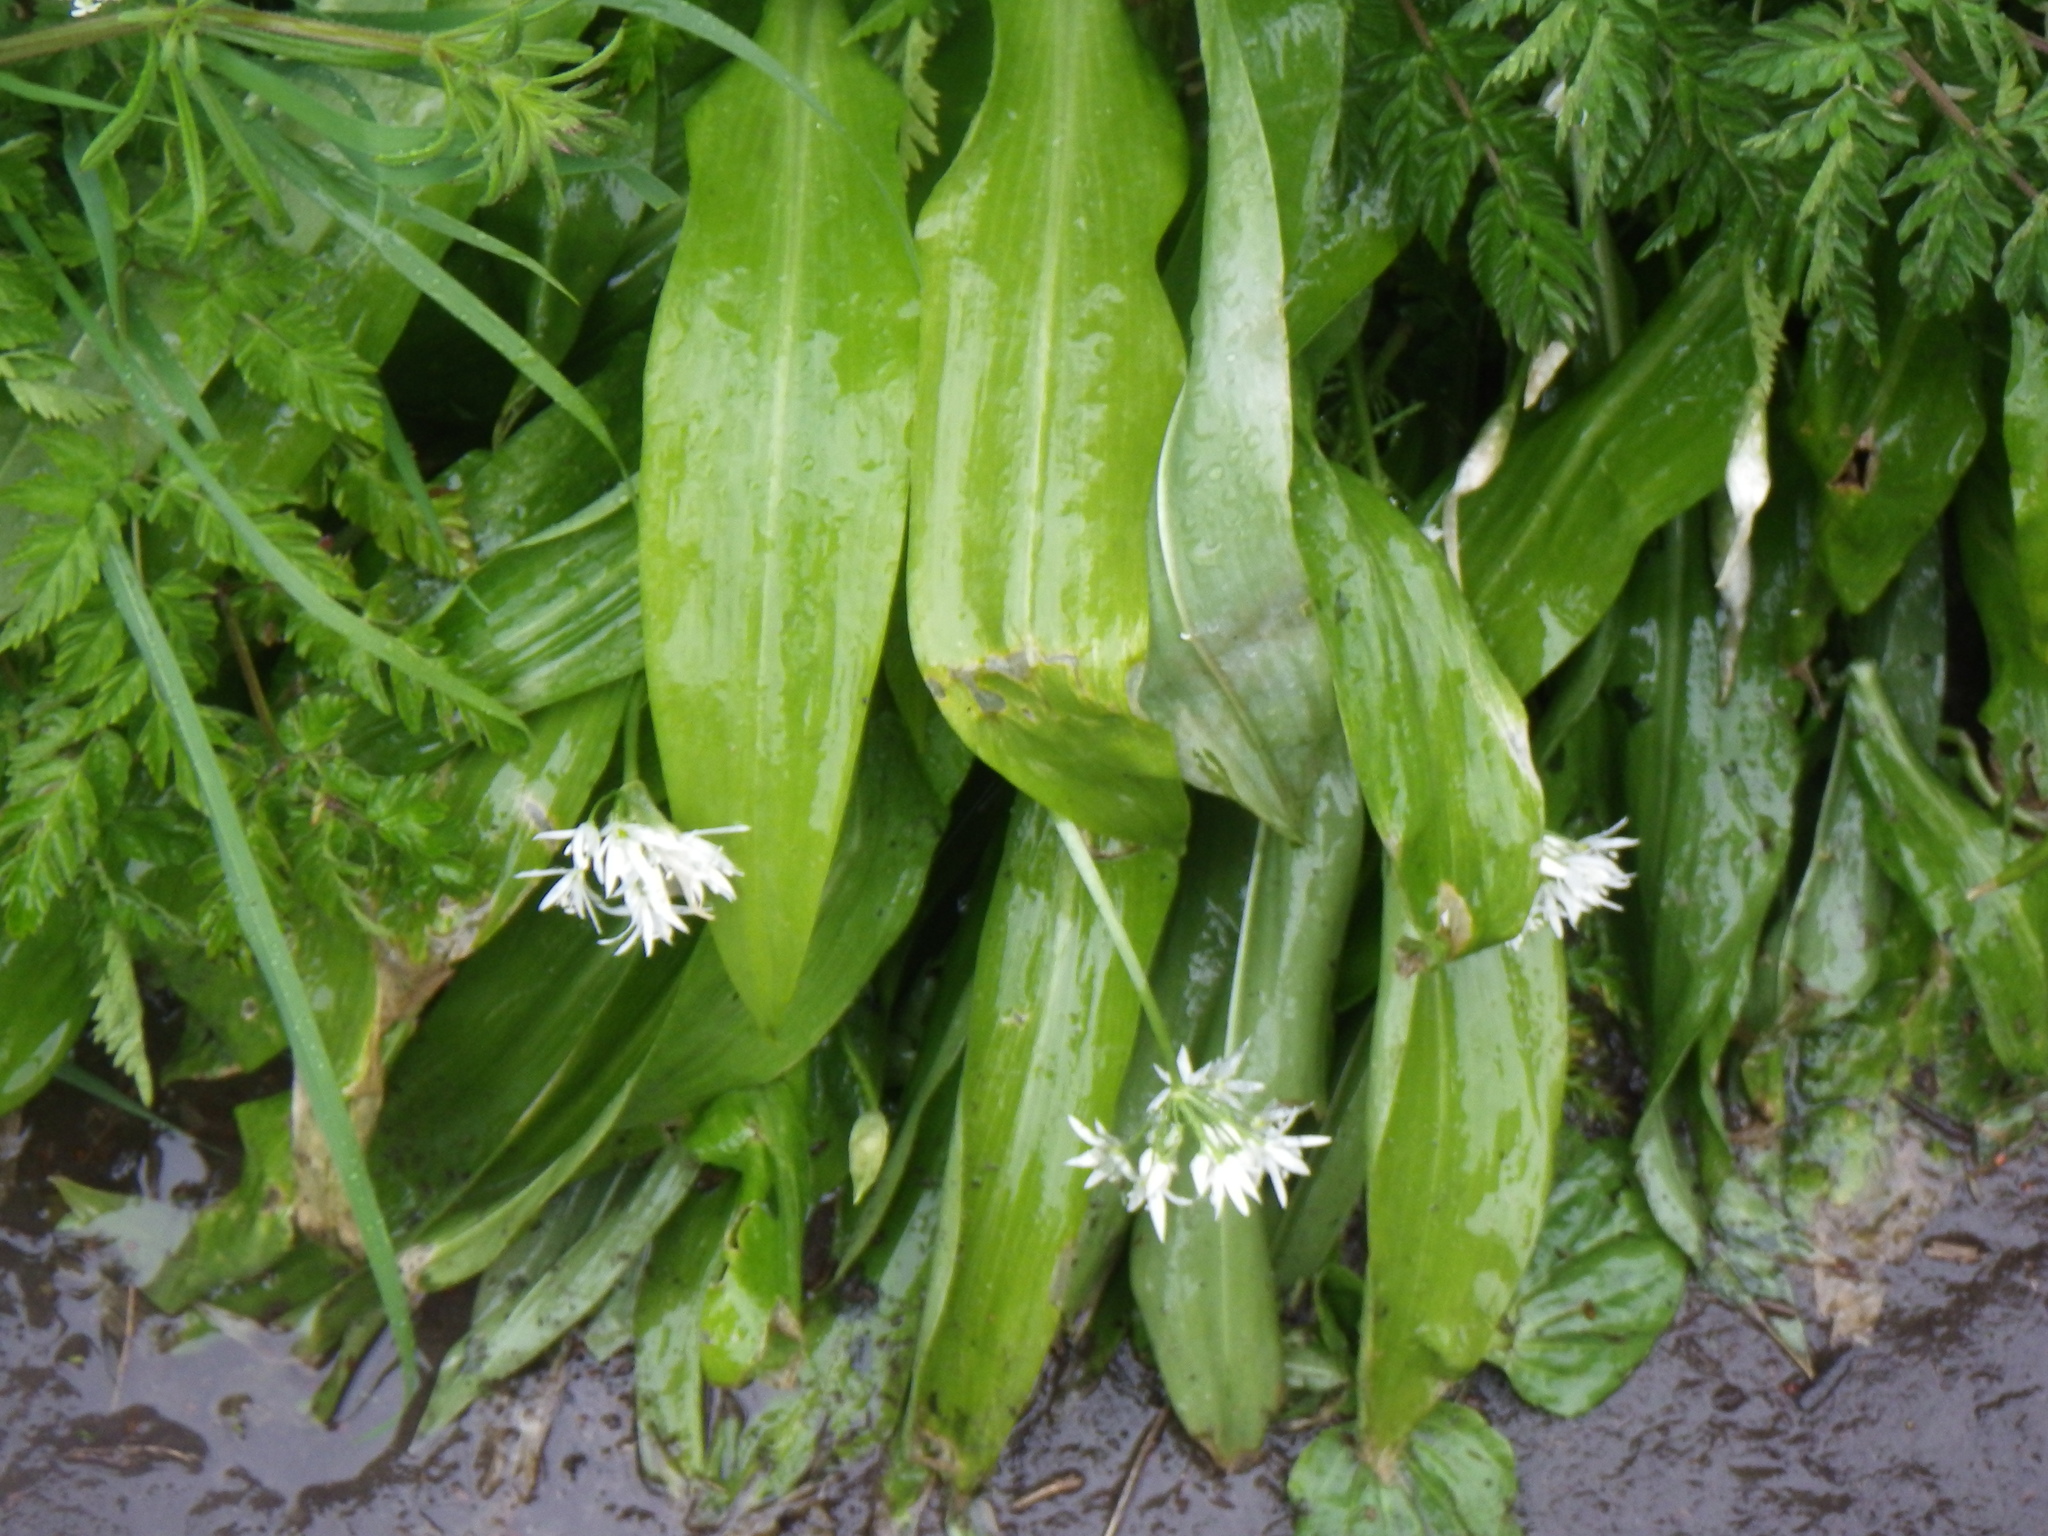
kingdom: Plantae
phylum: Tracheophyta
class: Liliopsida
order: Asparagales
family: Amaryllidaceae
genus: Allium
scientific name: Allium ursinum
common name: Ramsons
